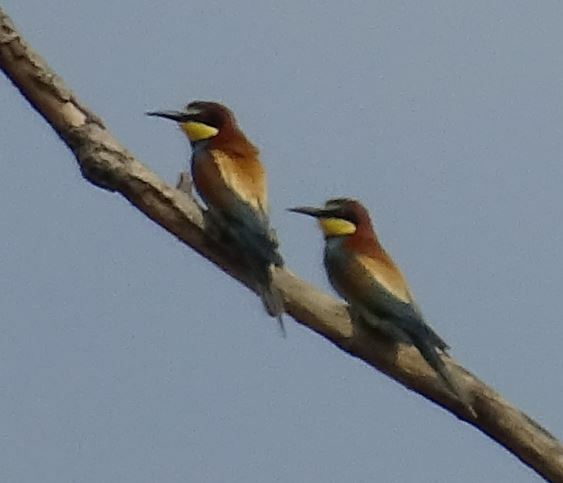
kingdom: Animalia
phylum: Chordata
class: Aves
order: Coraciiformes
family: Meropidae
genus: Merops
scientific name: Merops apiaster
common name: European bee-eater
